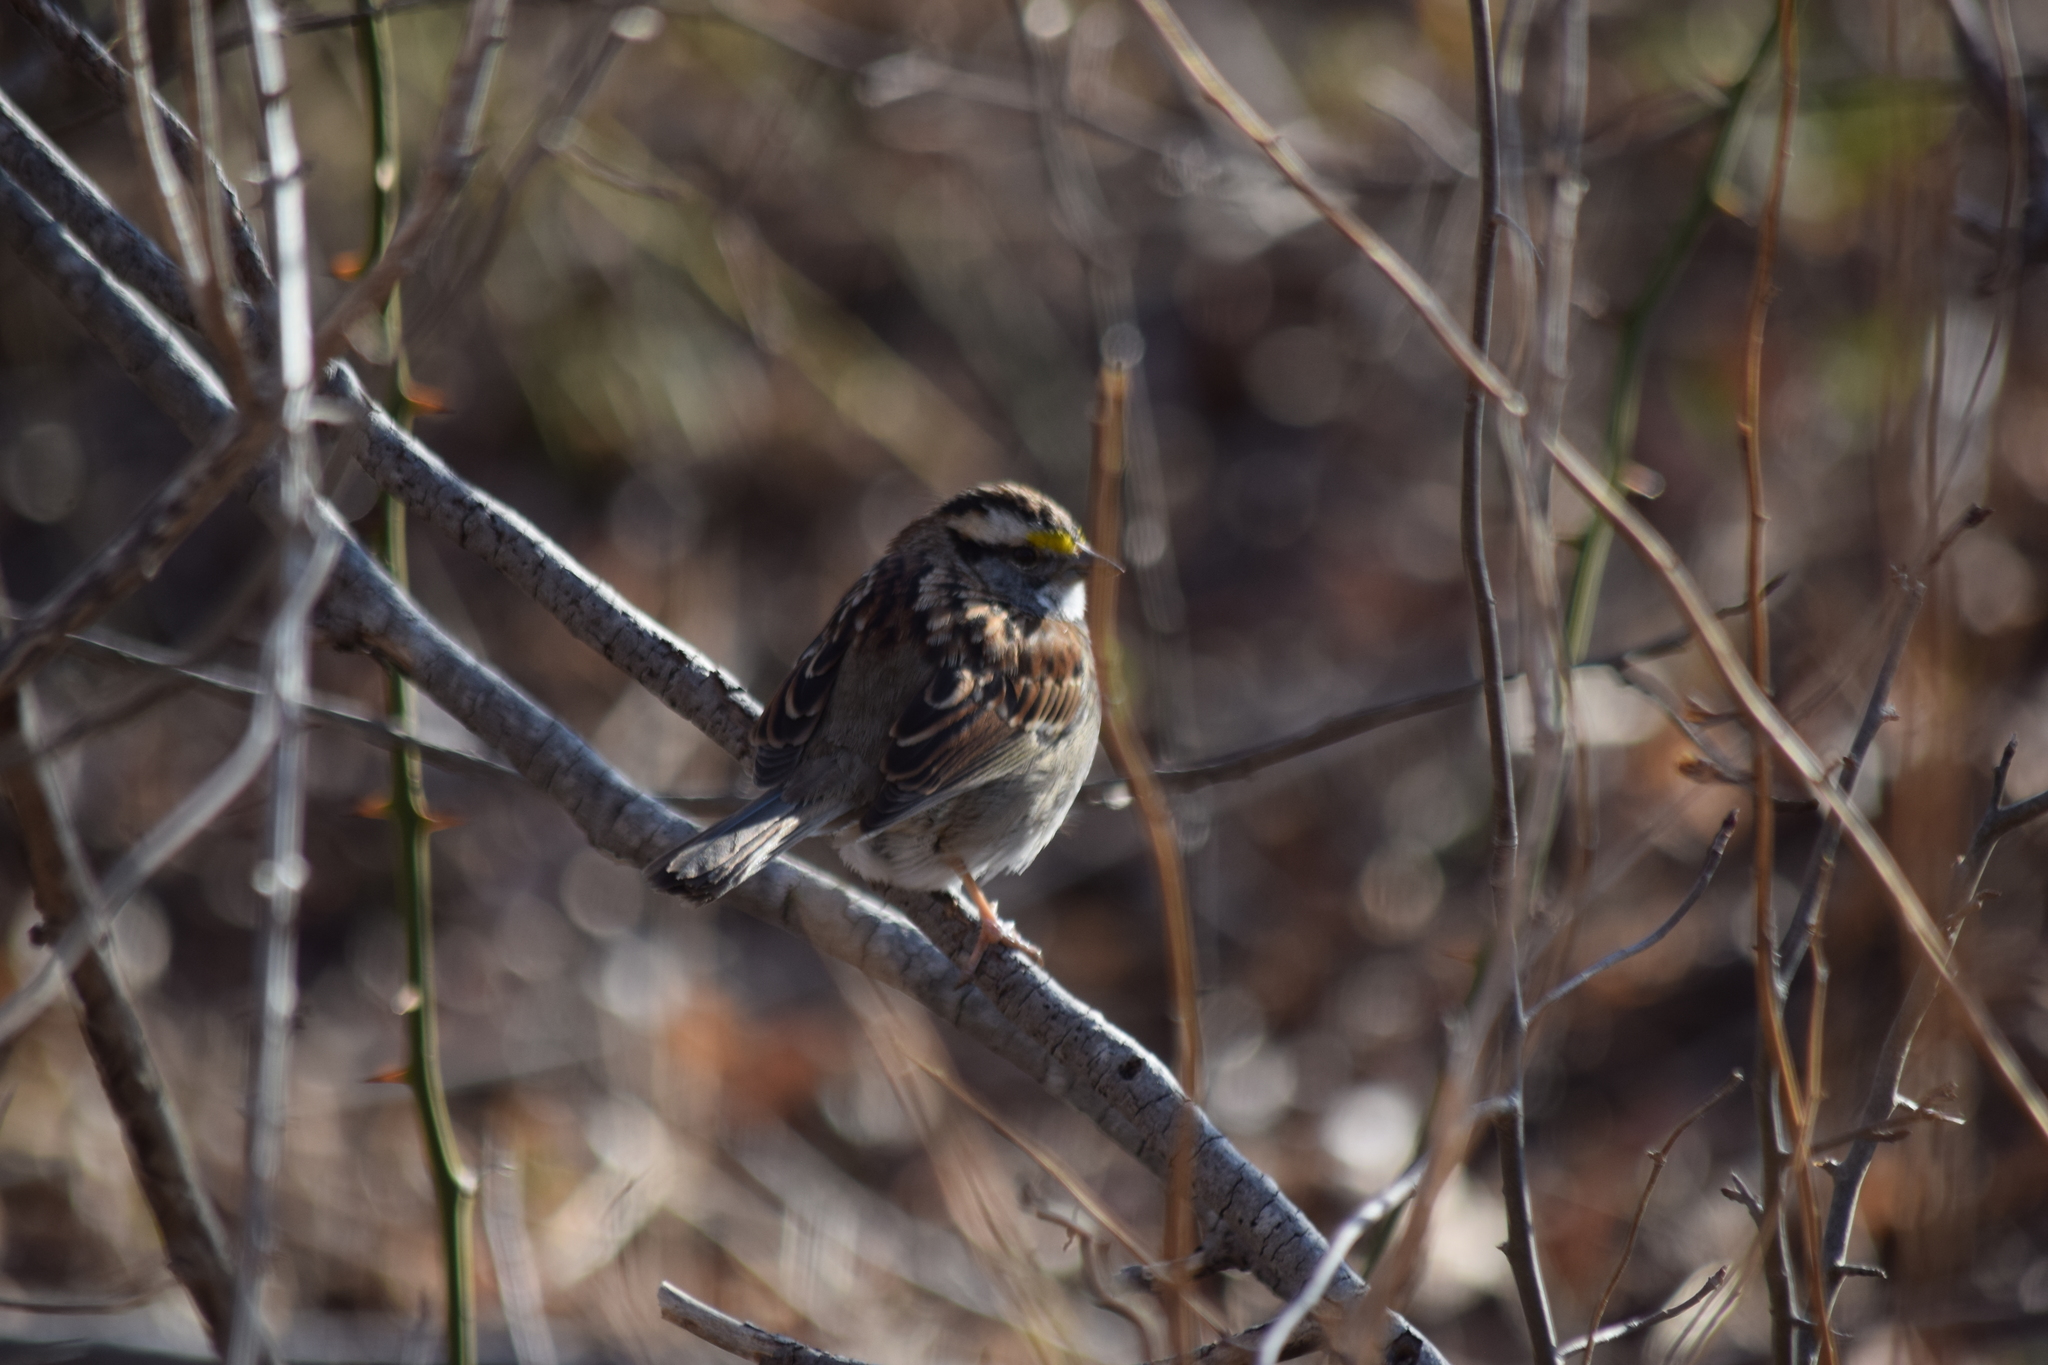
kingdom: Animalia
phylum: Chordata
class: Aves
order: Passeriformes
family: Passerellidae
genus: Zonotrichia
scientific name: Zonotrichia albicollis
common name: White-throated sparrow
